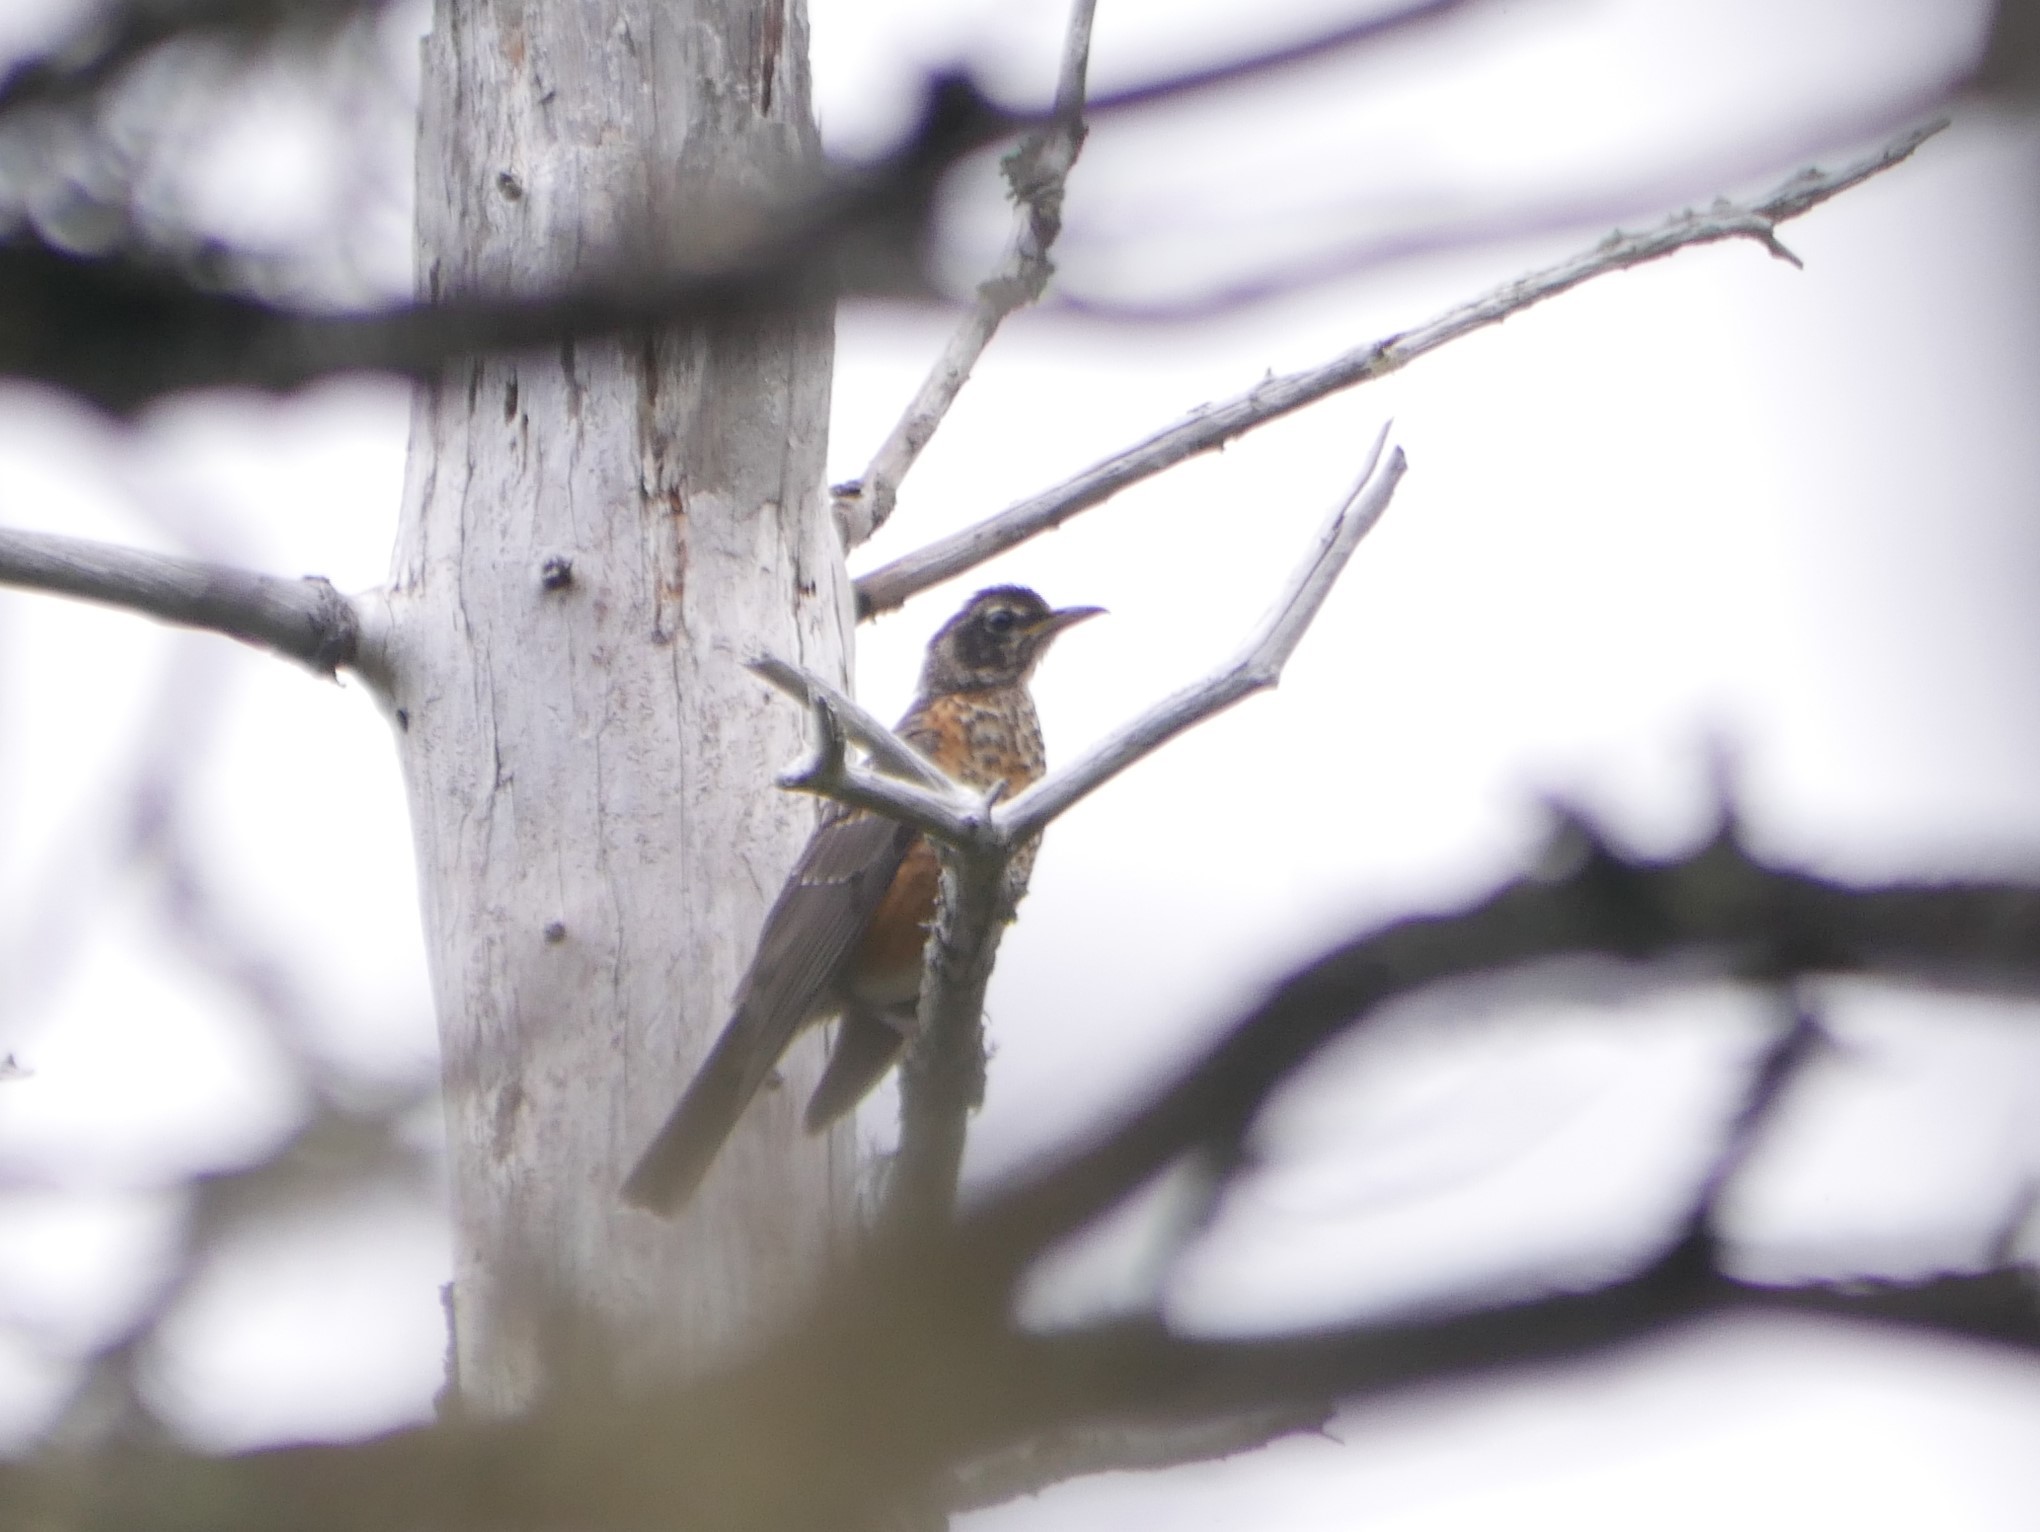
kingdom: Animalia
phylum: Chordata
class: Aves
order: Passeriformes
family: Turdidae
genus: Turdus
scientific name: Turdus migratorius
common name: American robin
